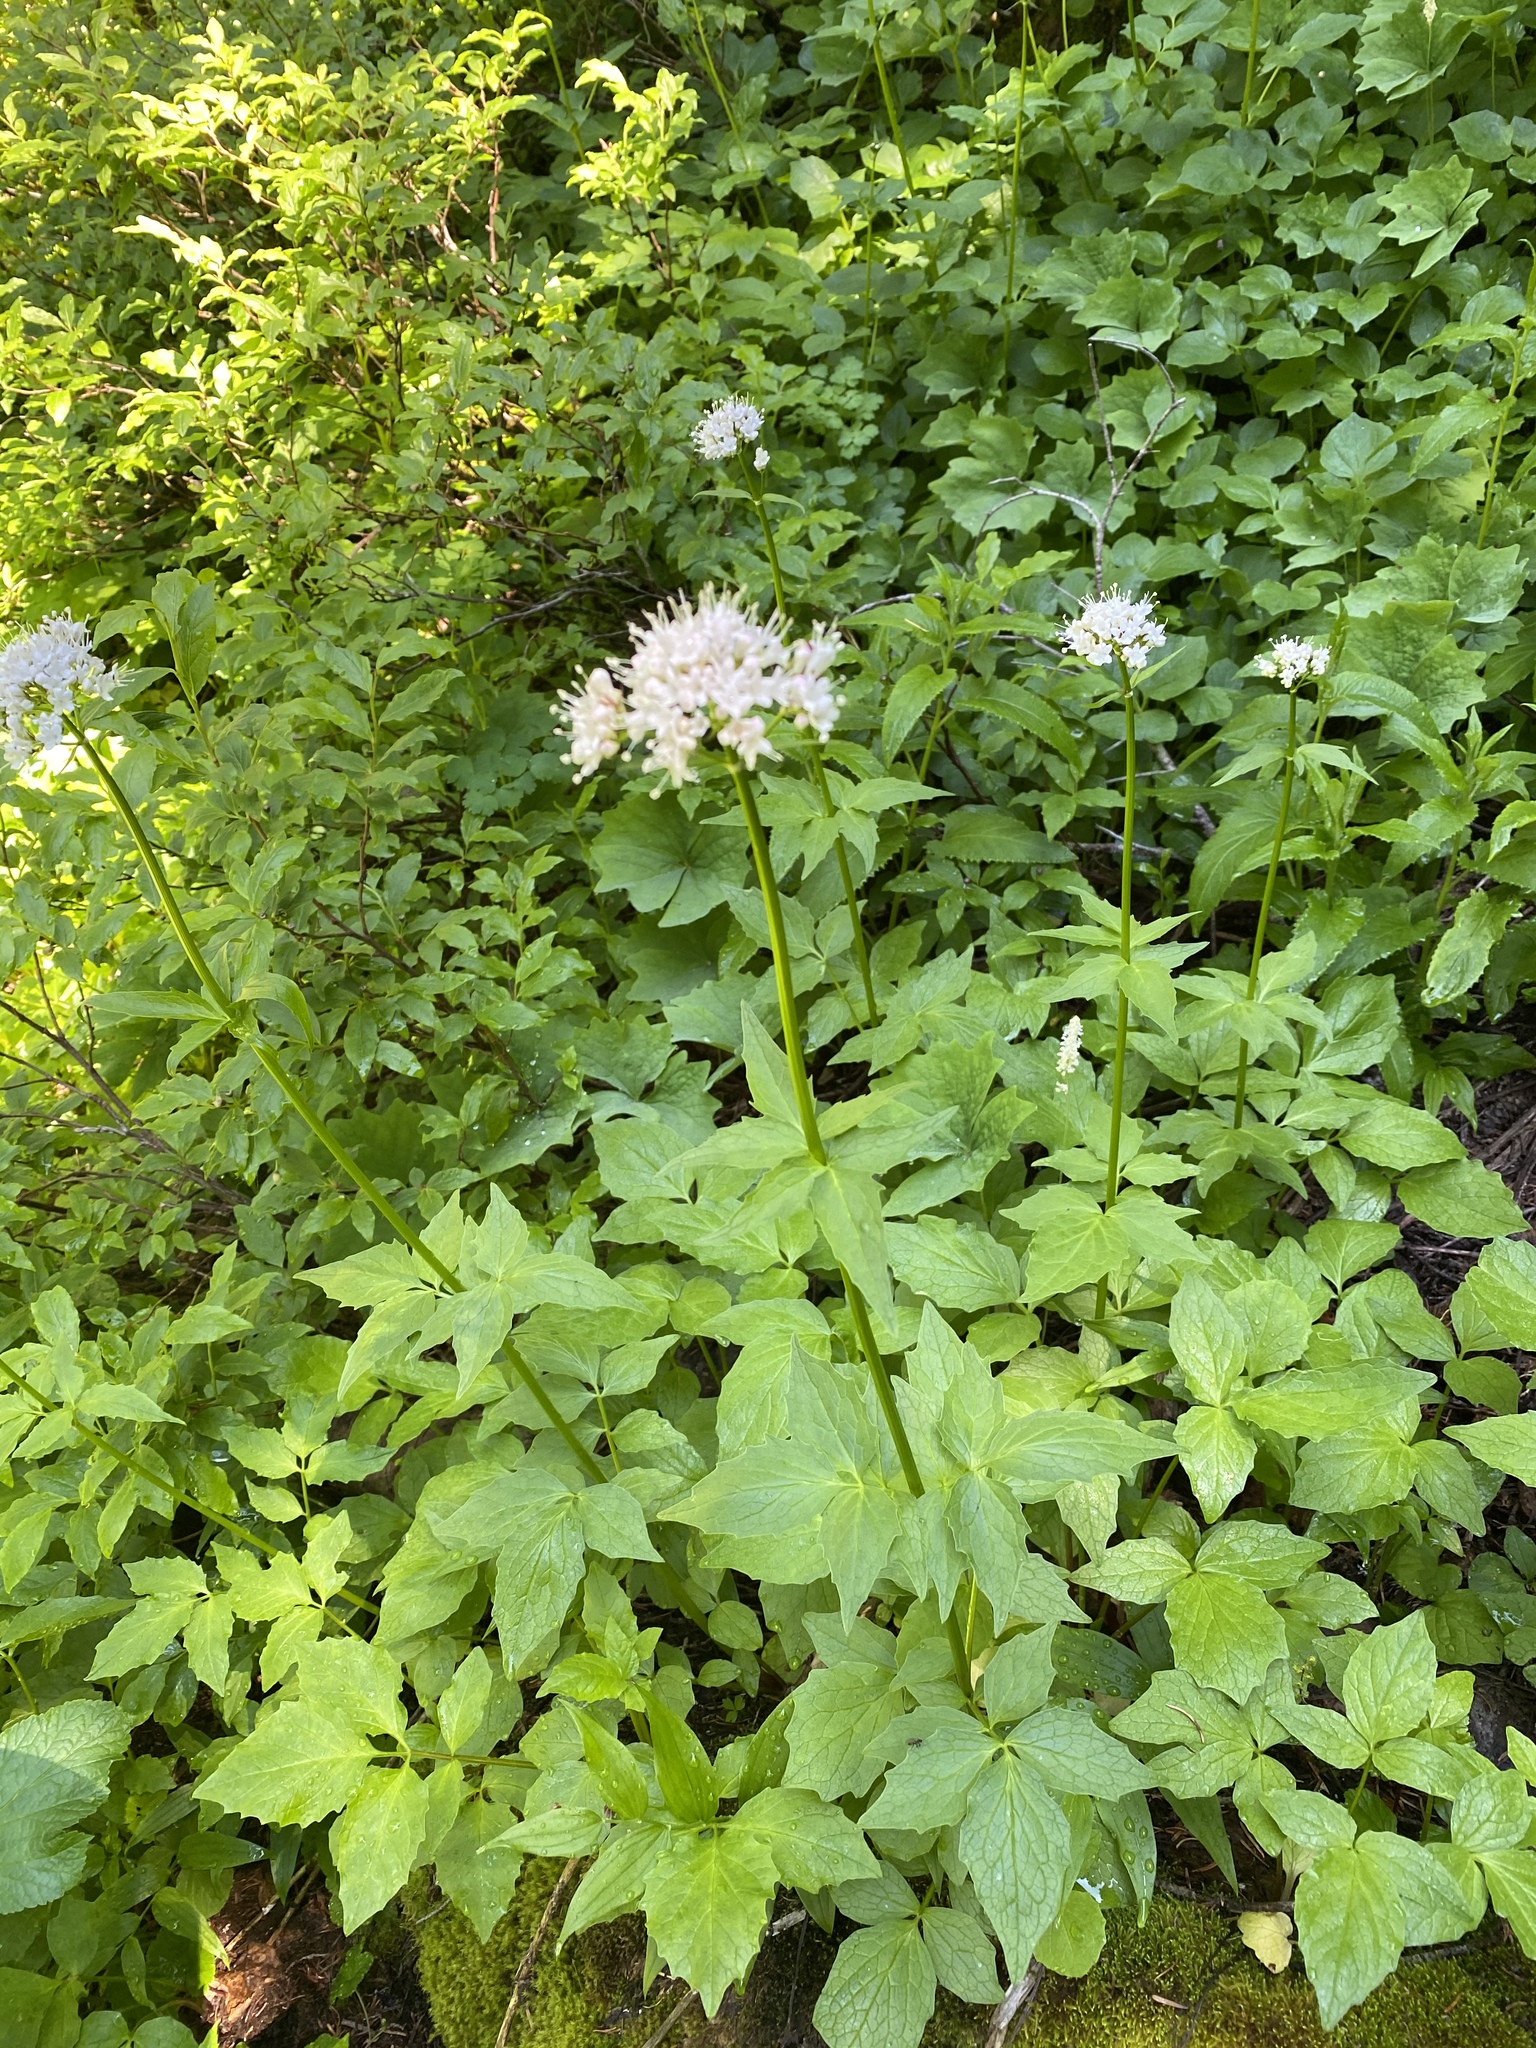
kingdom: Plantae
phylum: Tracheophyta
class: Magnoliopsida
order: Dipsacales
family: Caprifoliaceae
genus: Valeriana
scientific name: Valeriana sitchensis
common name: Pacific valerian
